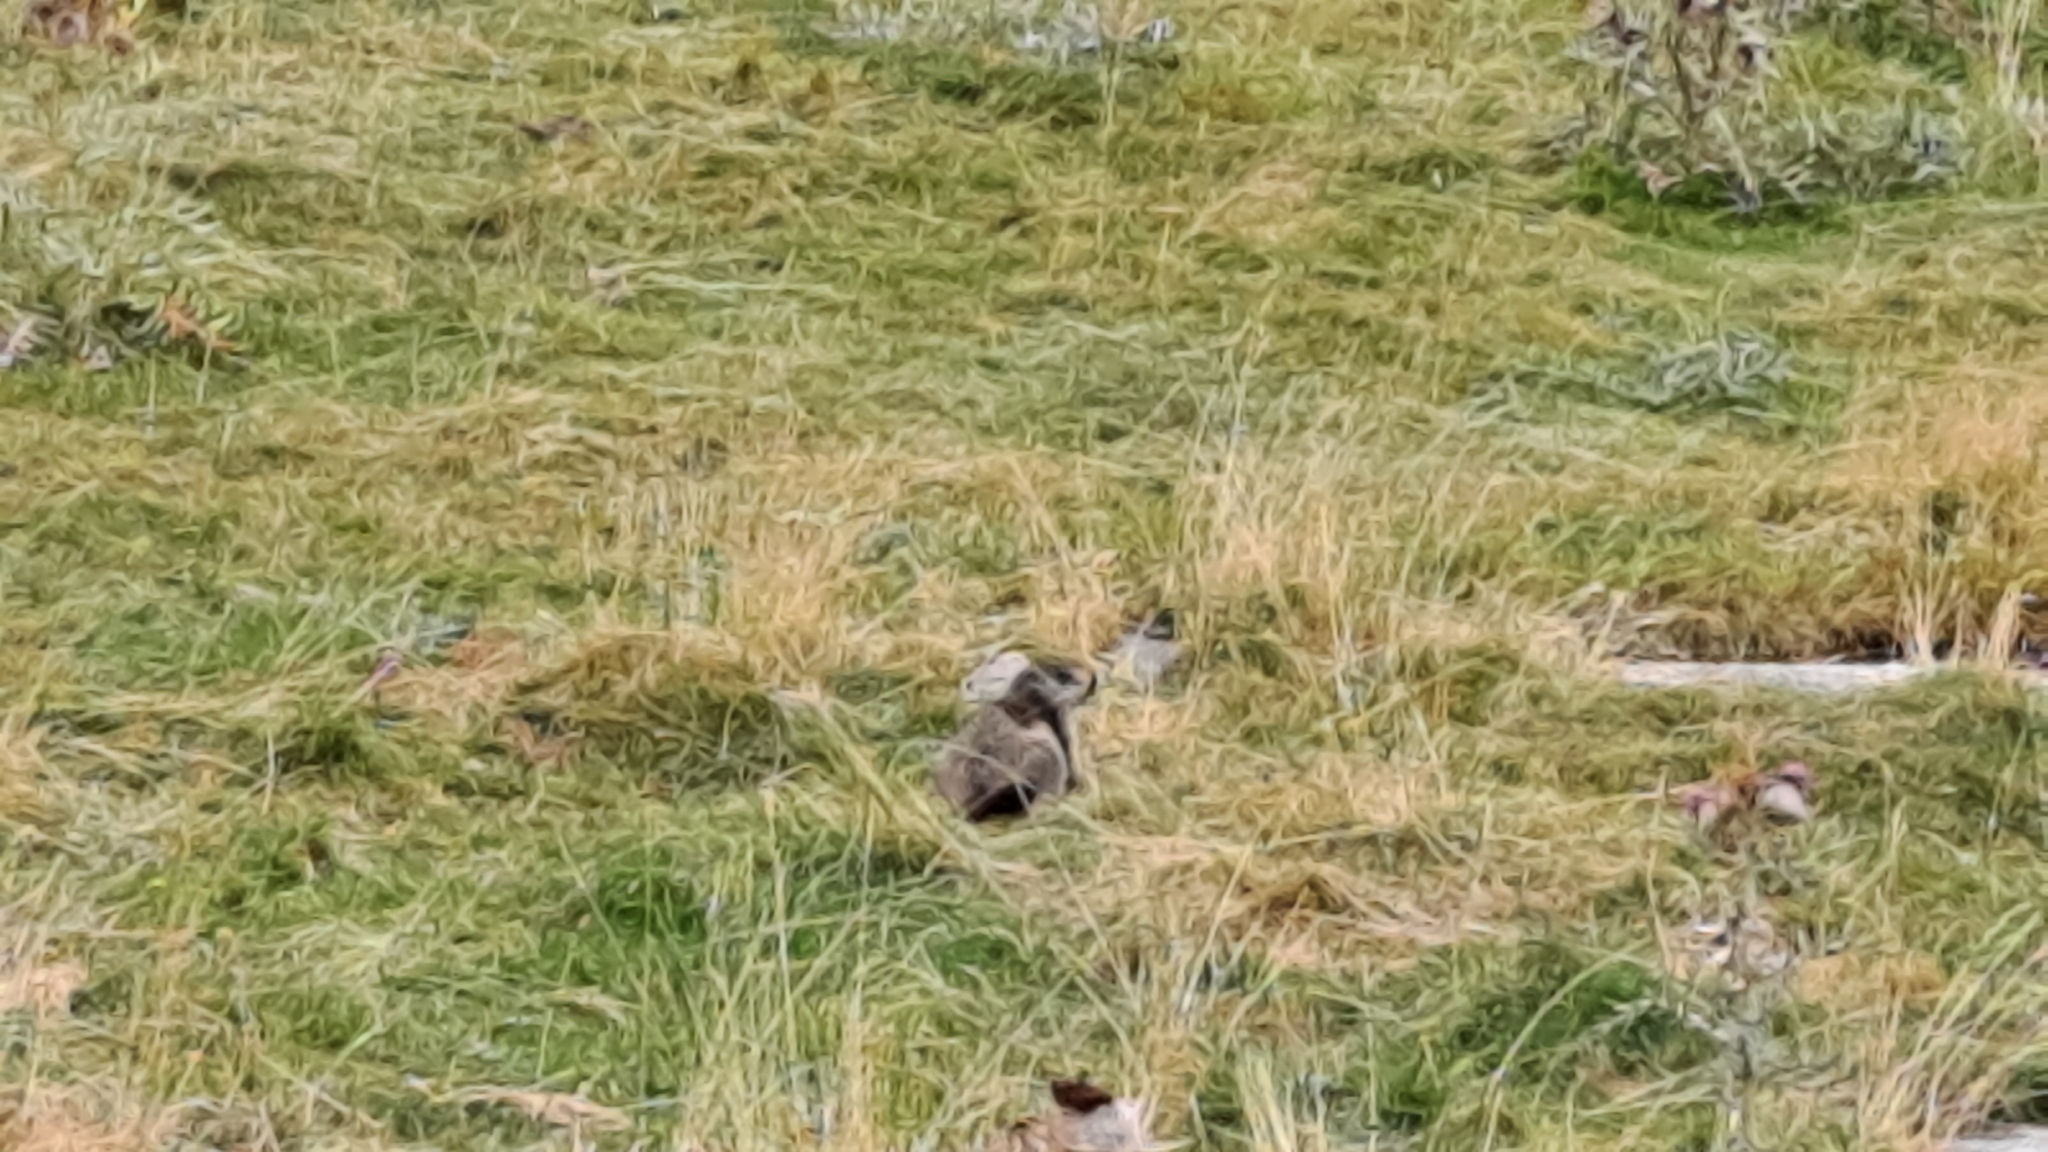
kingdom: Animalia
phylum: Chordata
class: Mammalia
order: Rodentia
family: Sciuridae
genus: Marmota
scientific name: Marmota marmota
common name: Alpine marmot
